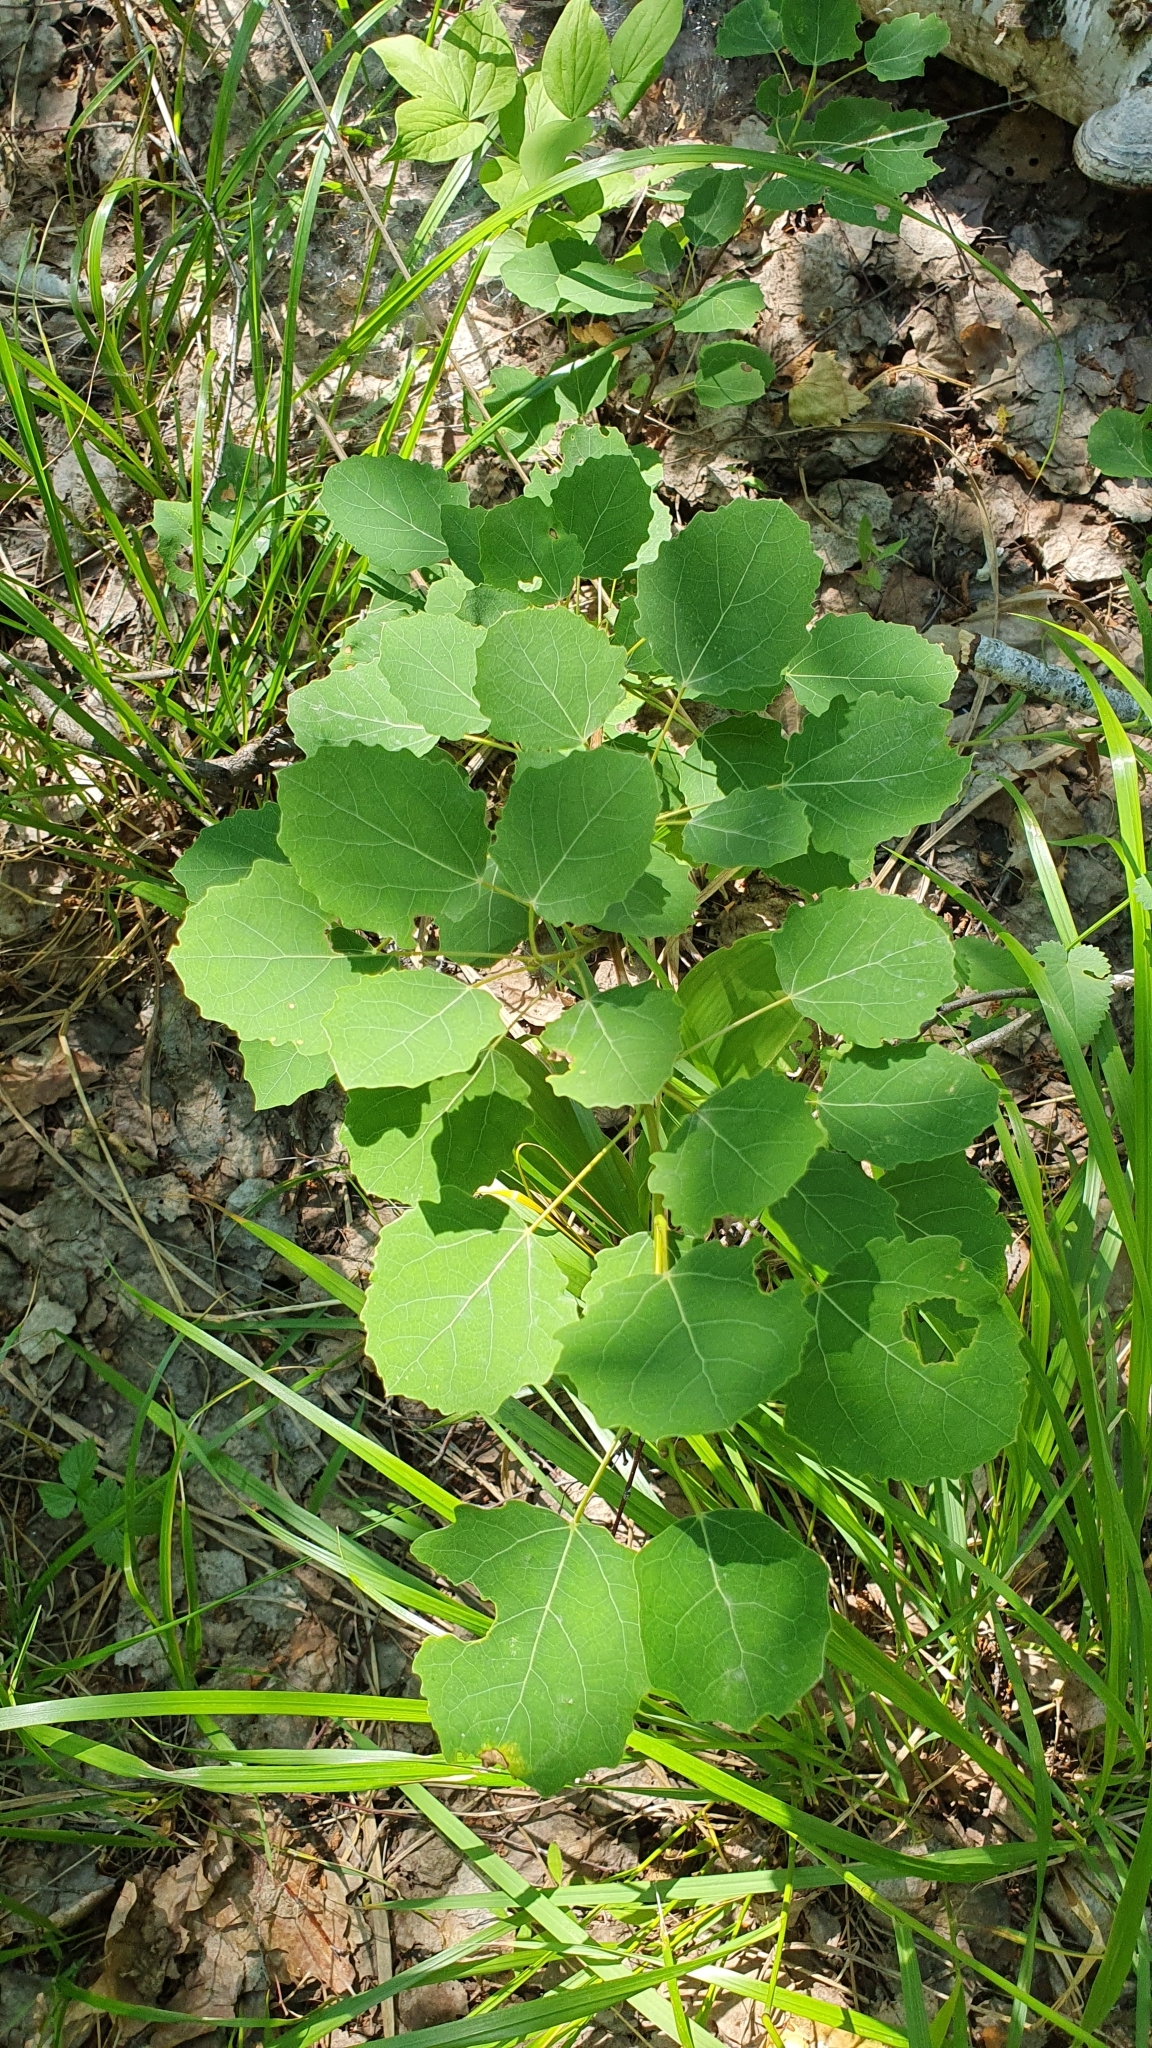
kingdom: Plantae
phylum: Tracheophyta
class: Magnoliopsida
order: Malpighiales
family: Salicaceae
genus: Populus
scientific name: Populus tremula
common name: European aspen
